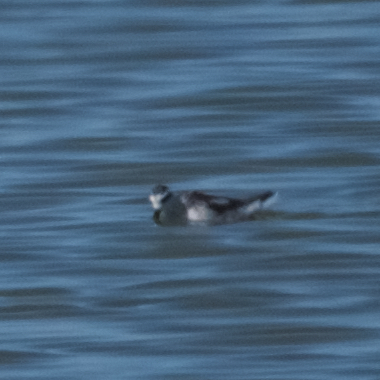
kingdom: Animalia
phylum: Chordata
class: Aves
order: Charadriiformes
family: Scolopacidae
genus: Phalaropus
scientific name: Phalaropus lobatus
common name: Red-necked phalarope
